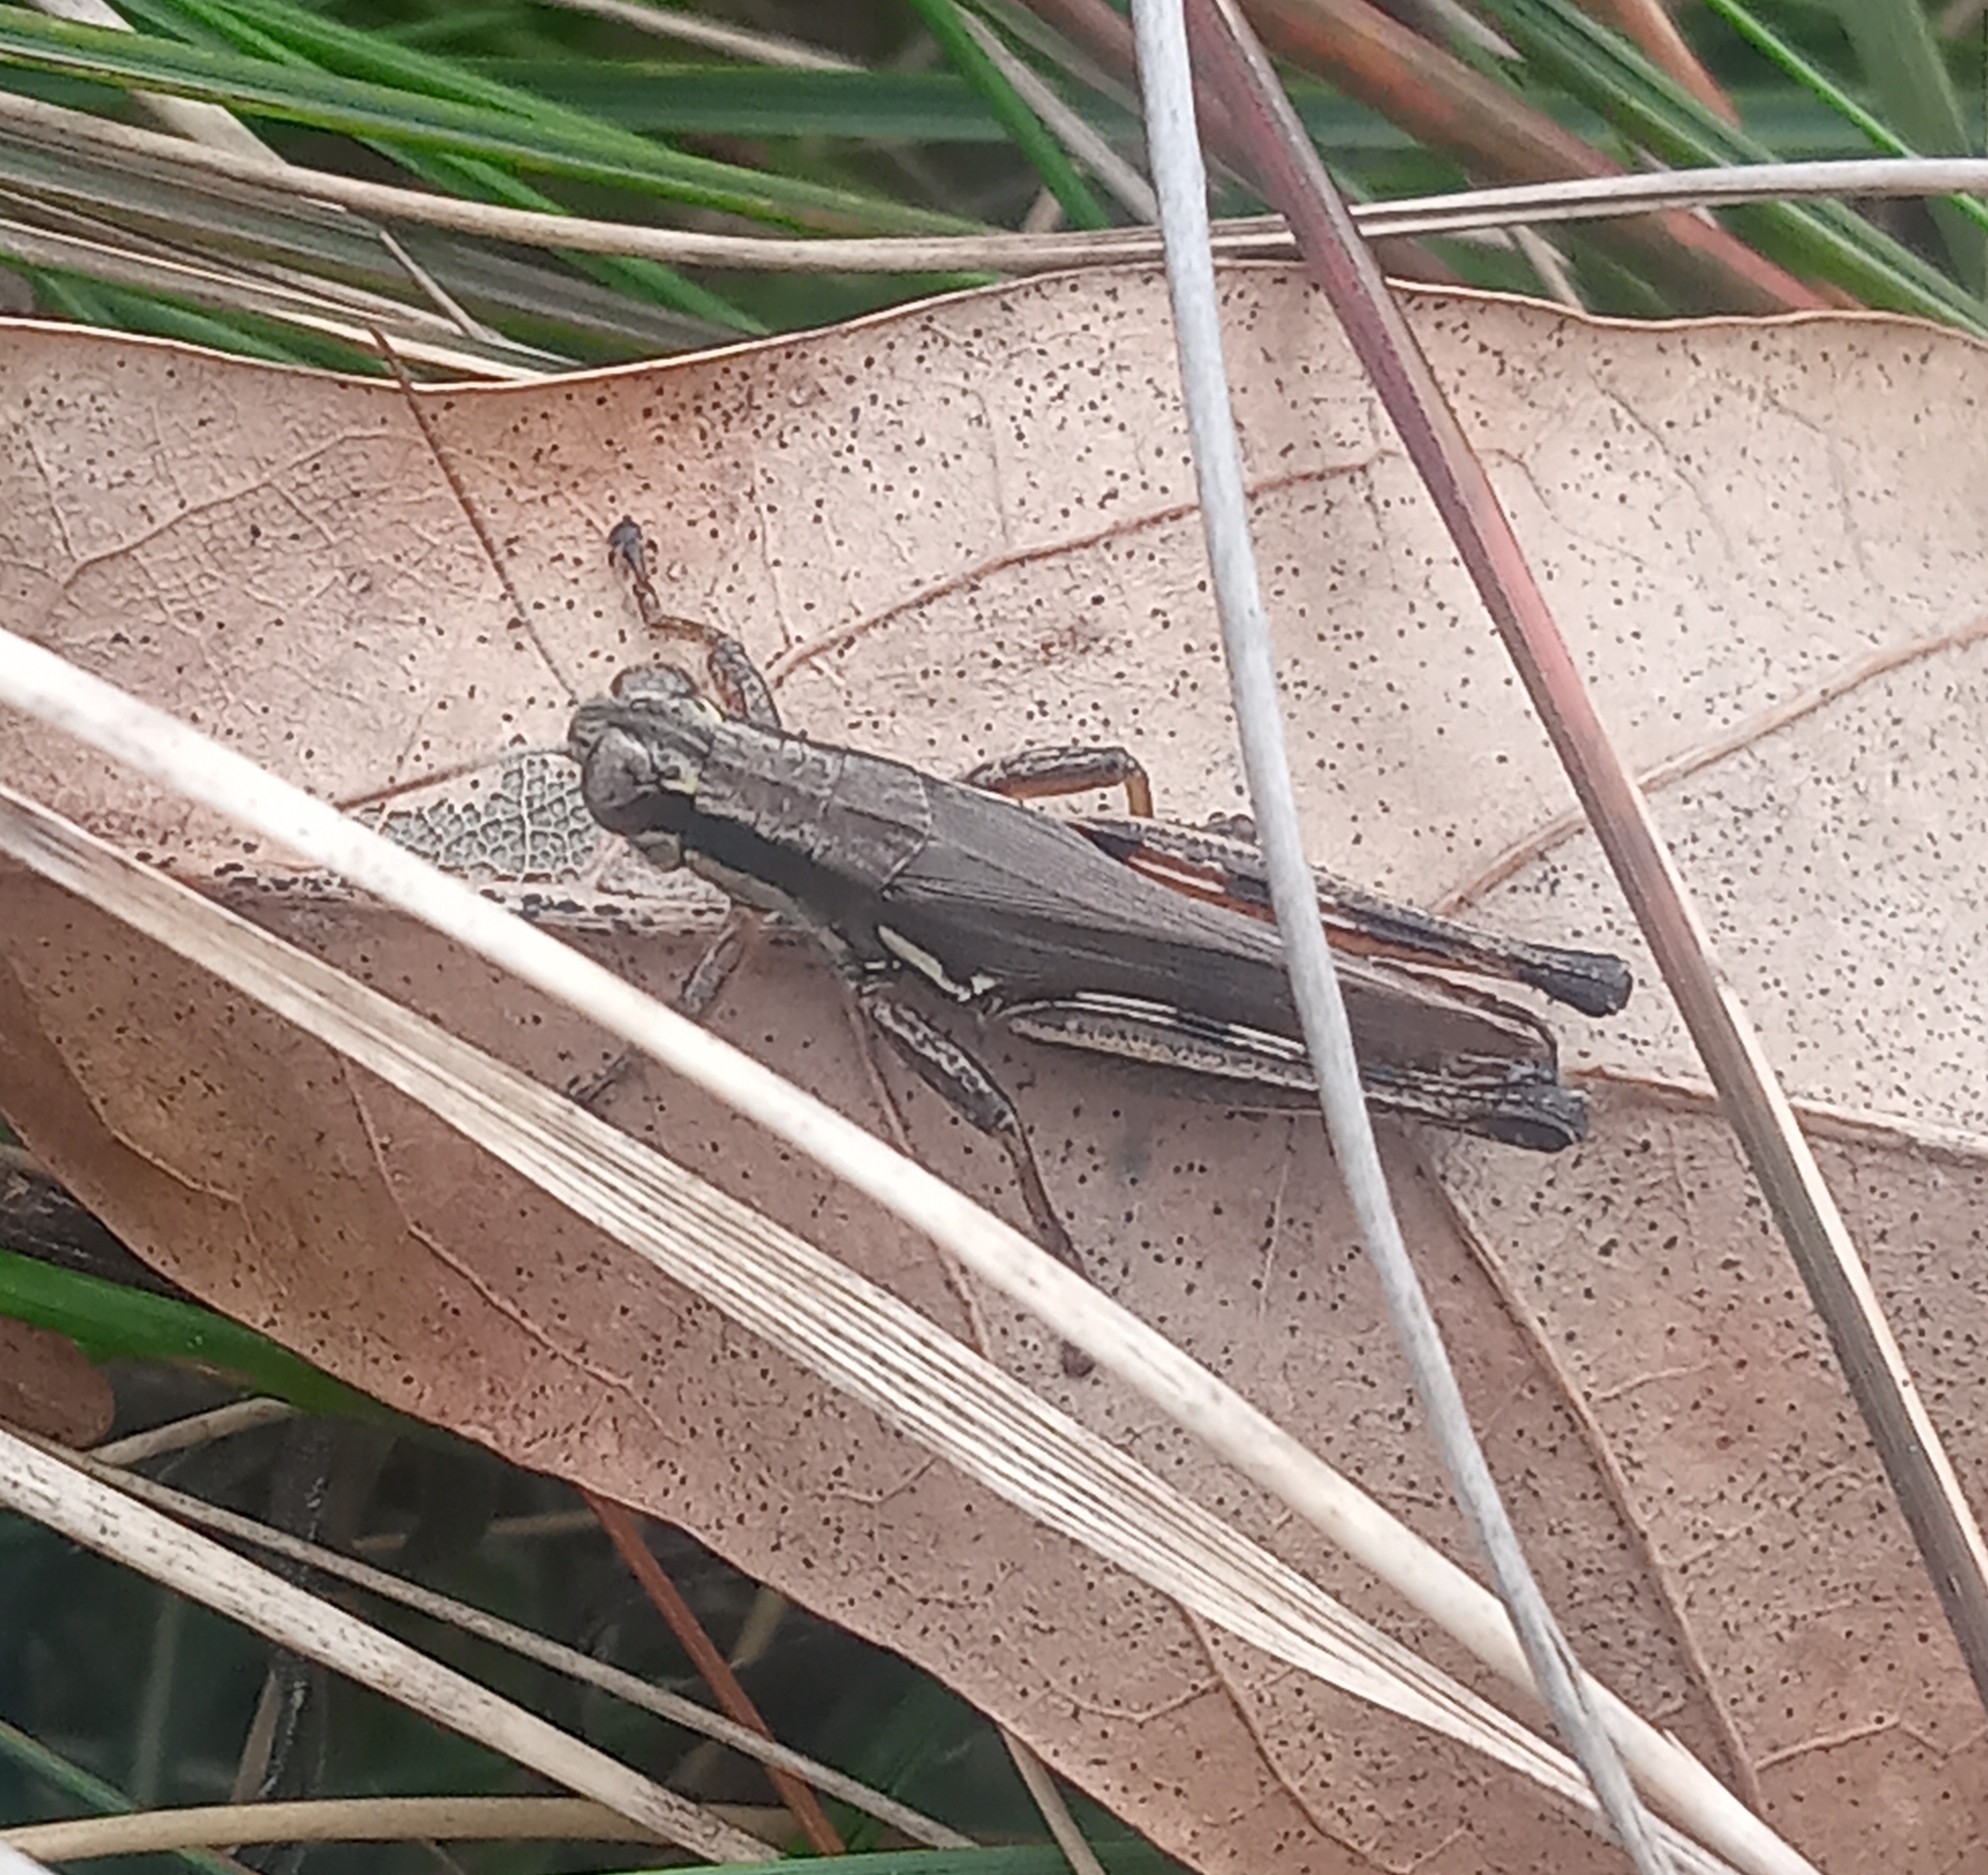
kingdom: Animalia
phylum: Arthropoda
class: Insecta
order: Orthoptera
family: Acrididae
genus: Paroxya
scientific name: Paroxya atlantica
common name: Atlantic grasshopper
